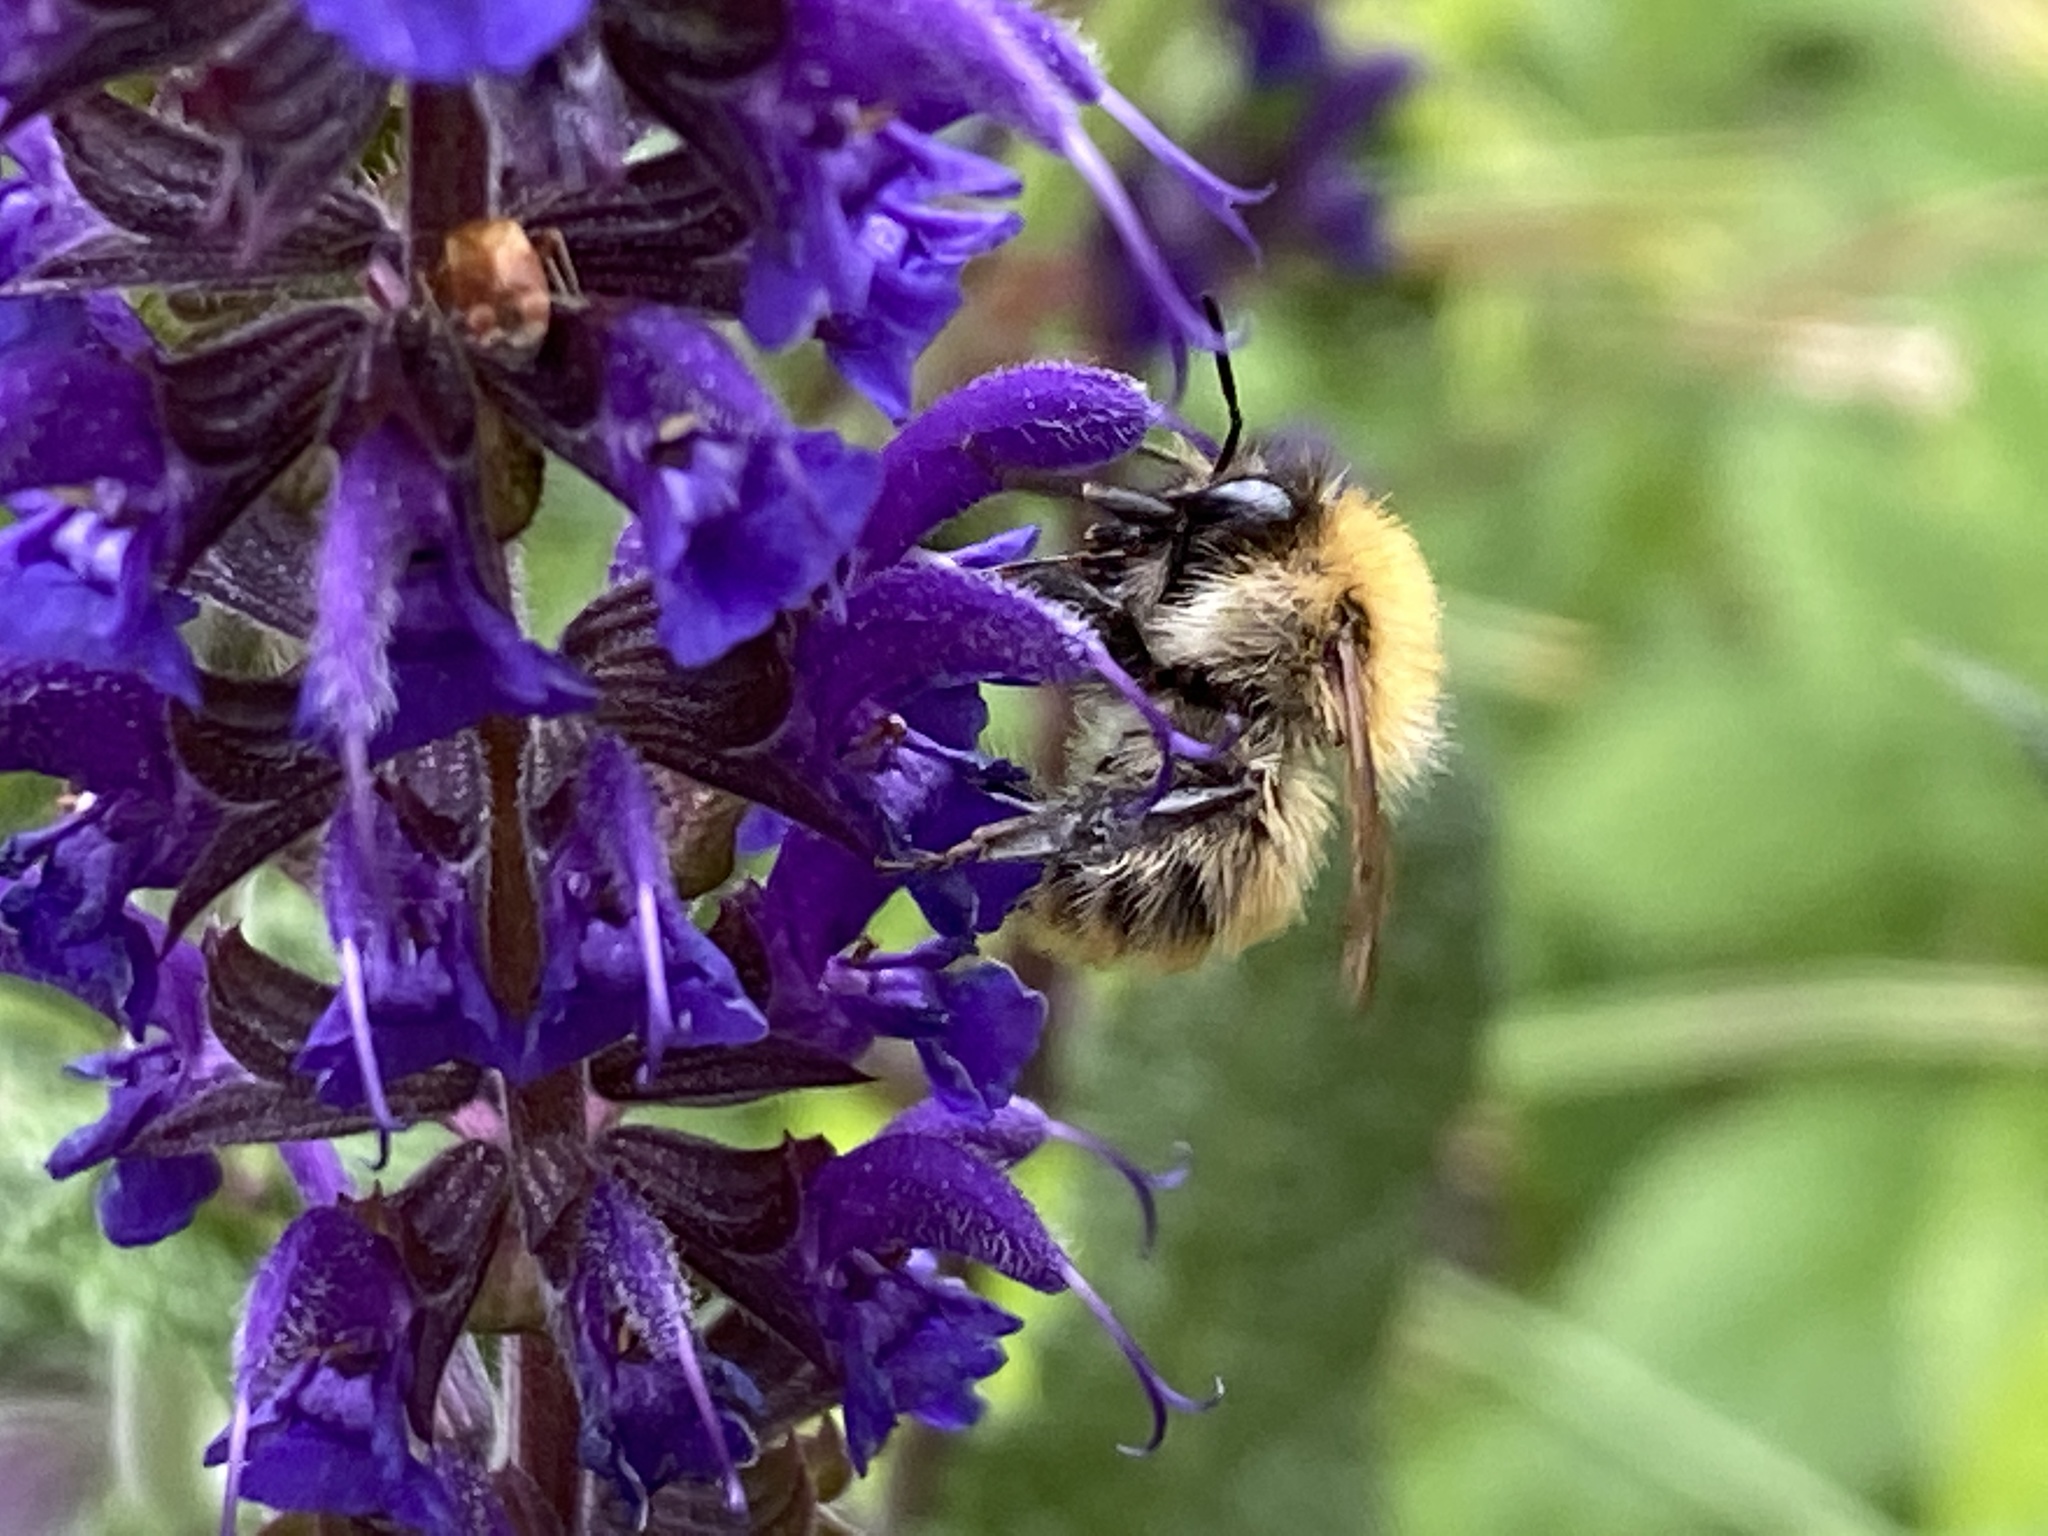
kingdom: Animalia
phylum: Arthropoda
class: Insecta
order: Hymenoptera
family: Apidae
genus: Bombus
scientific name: Bombus pascuorum
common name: Common carder bee
